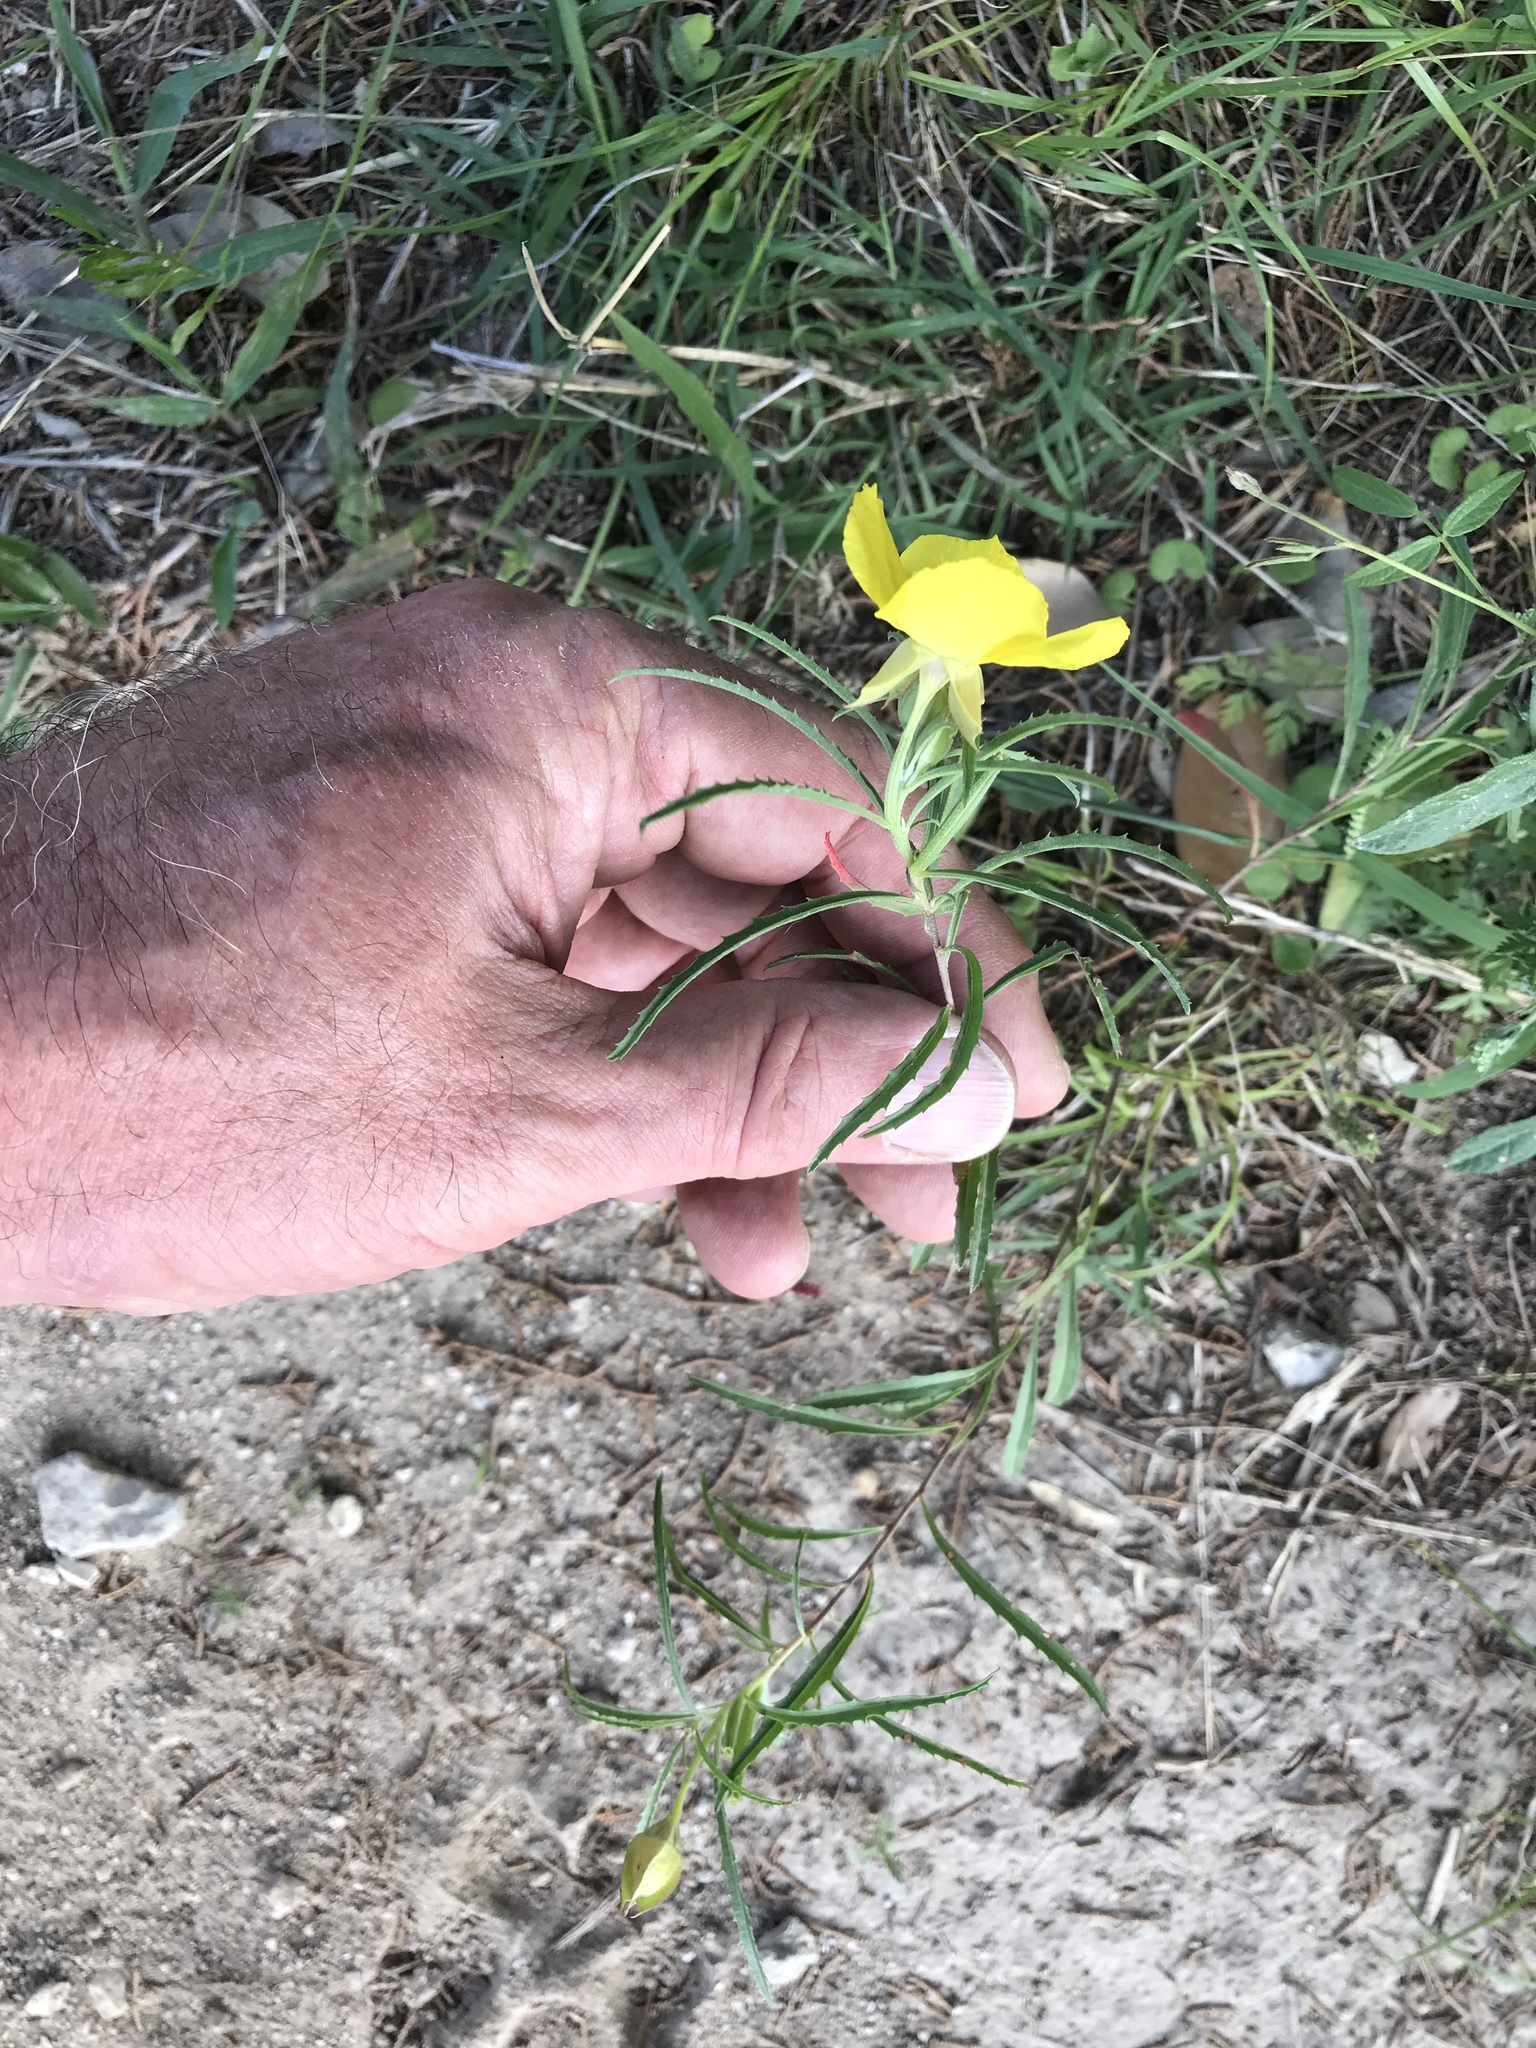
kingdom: Plantae
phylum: Tracheophyta
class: Magnoliopsida
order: Myrtales
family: Onagraceae
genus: Oenothera
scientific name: Oenothera
